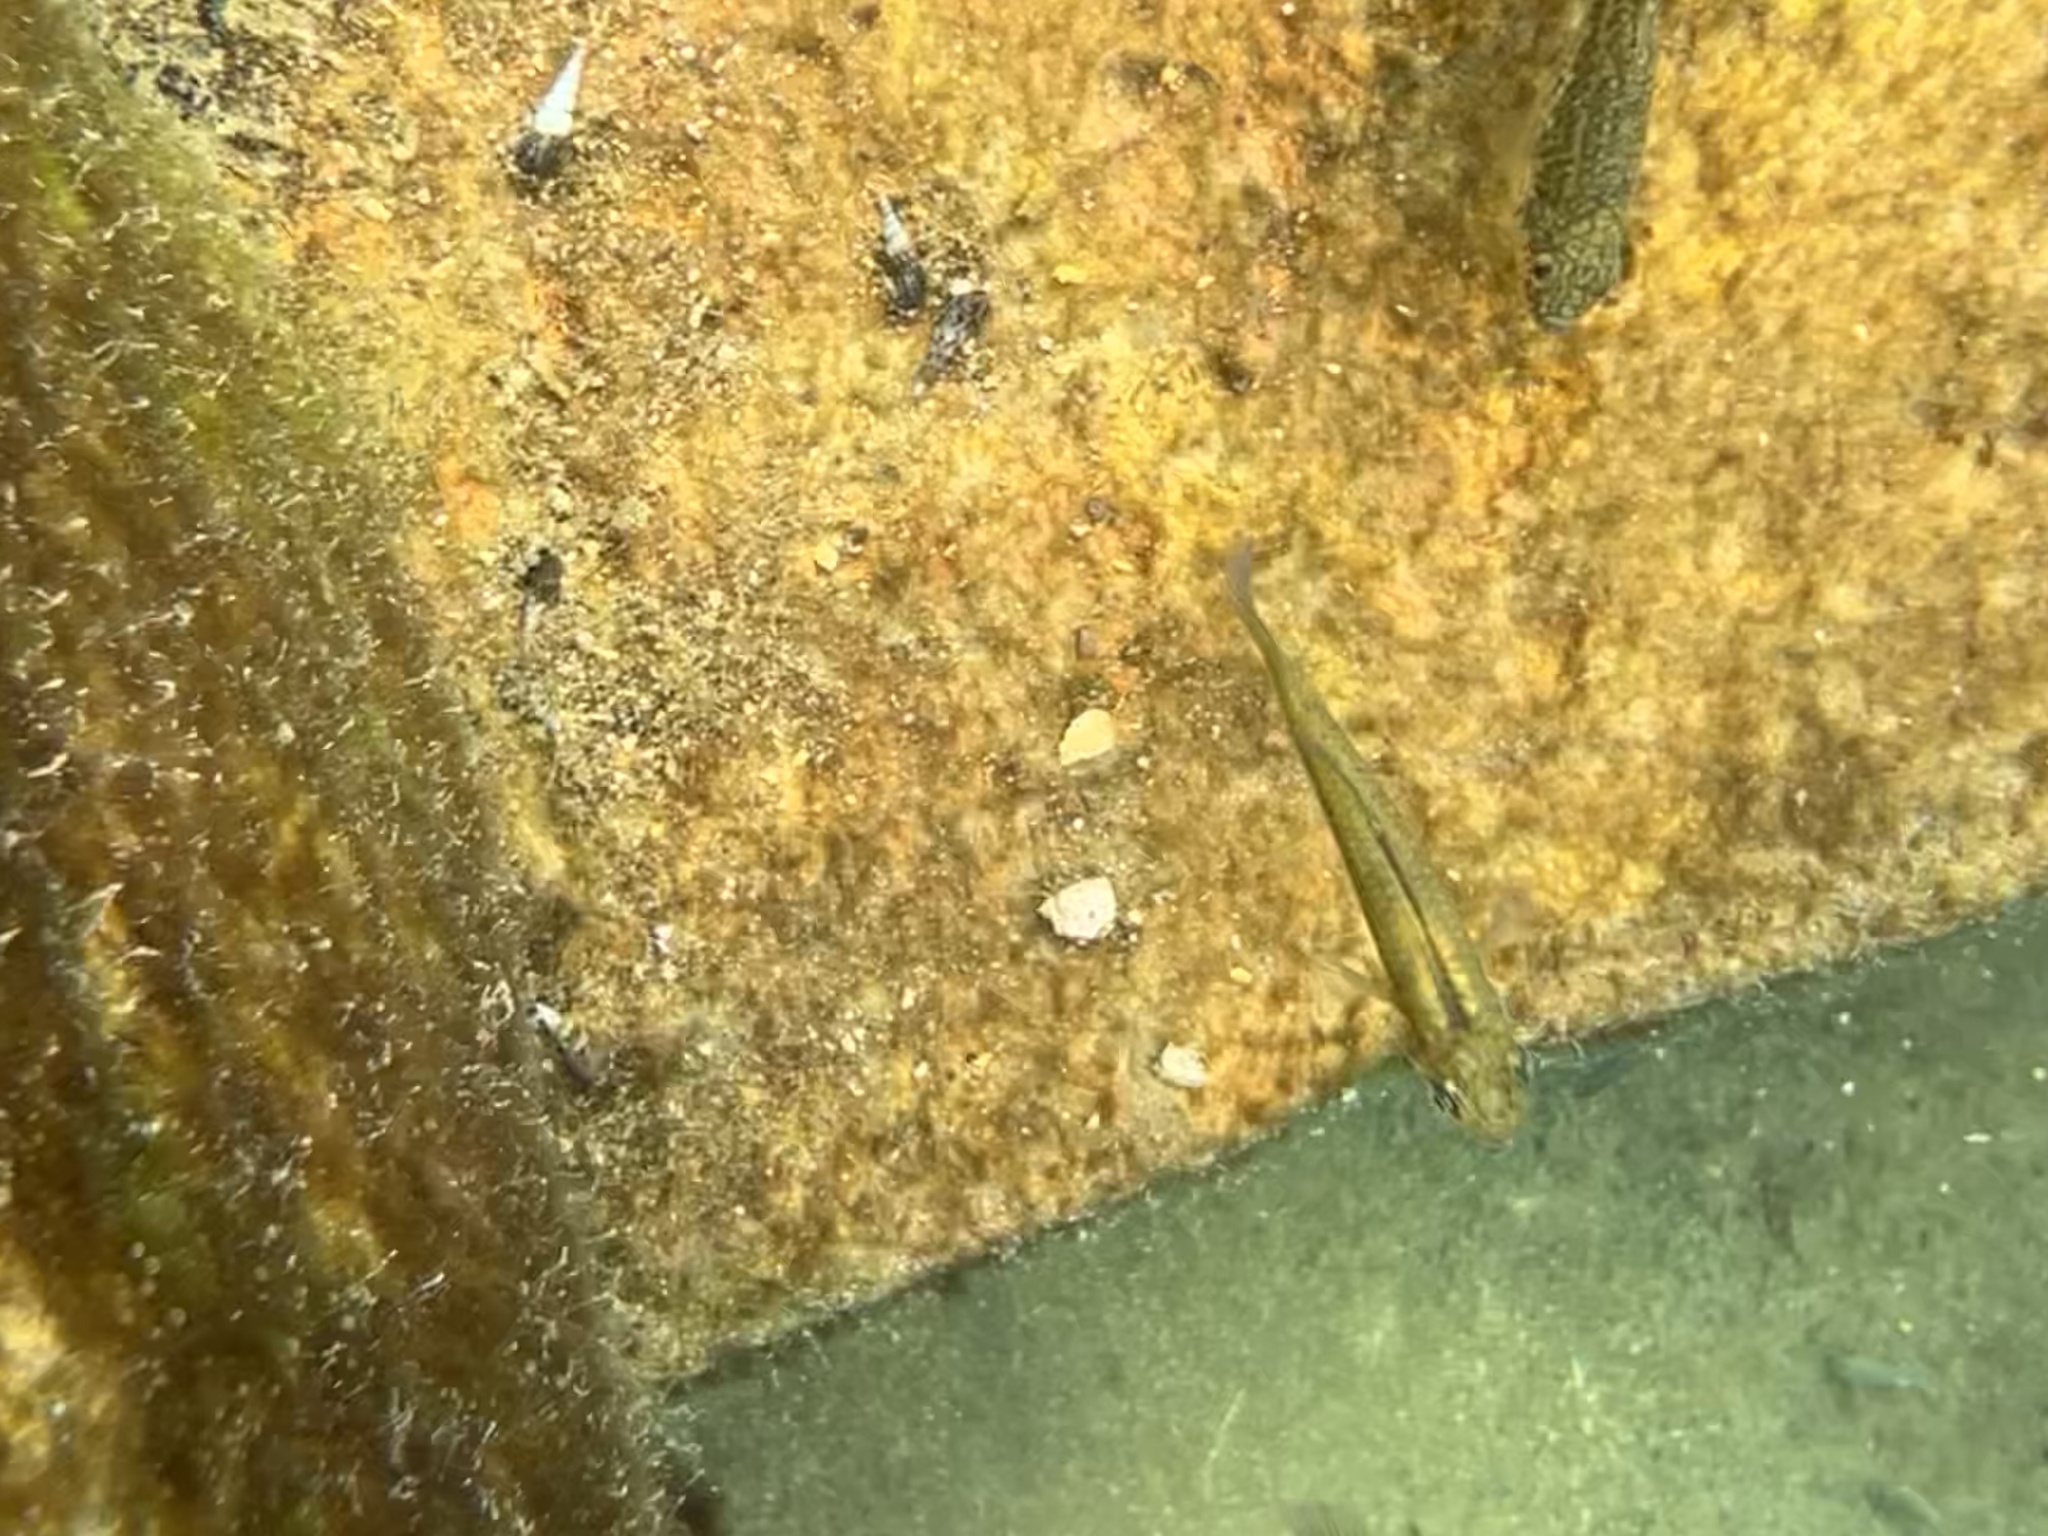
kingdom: Animalia
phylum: Chordata
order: Cyprinodontiformes
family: Poeciliidae
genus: Gambusia
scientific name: Gambusia nobilis
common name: Pecos gambusia
